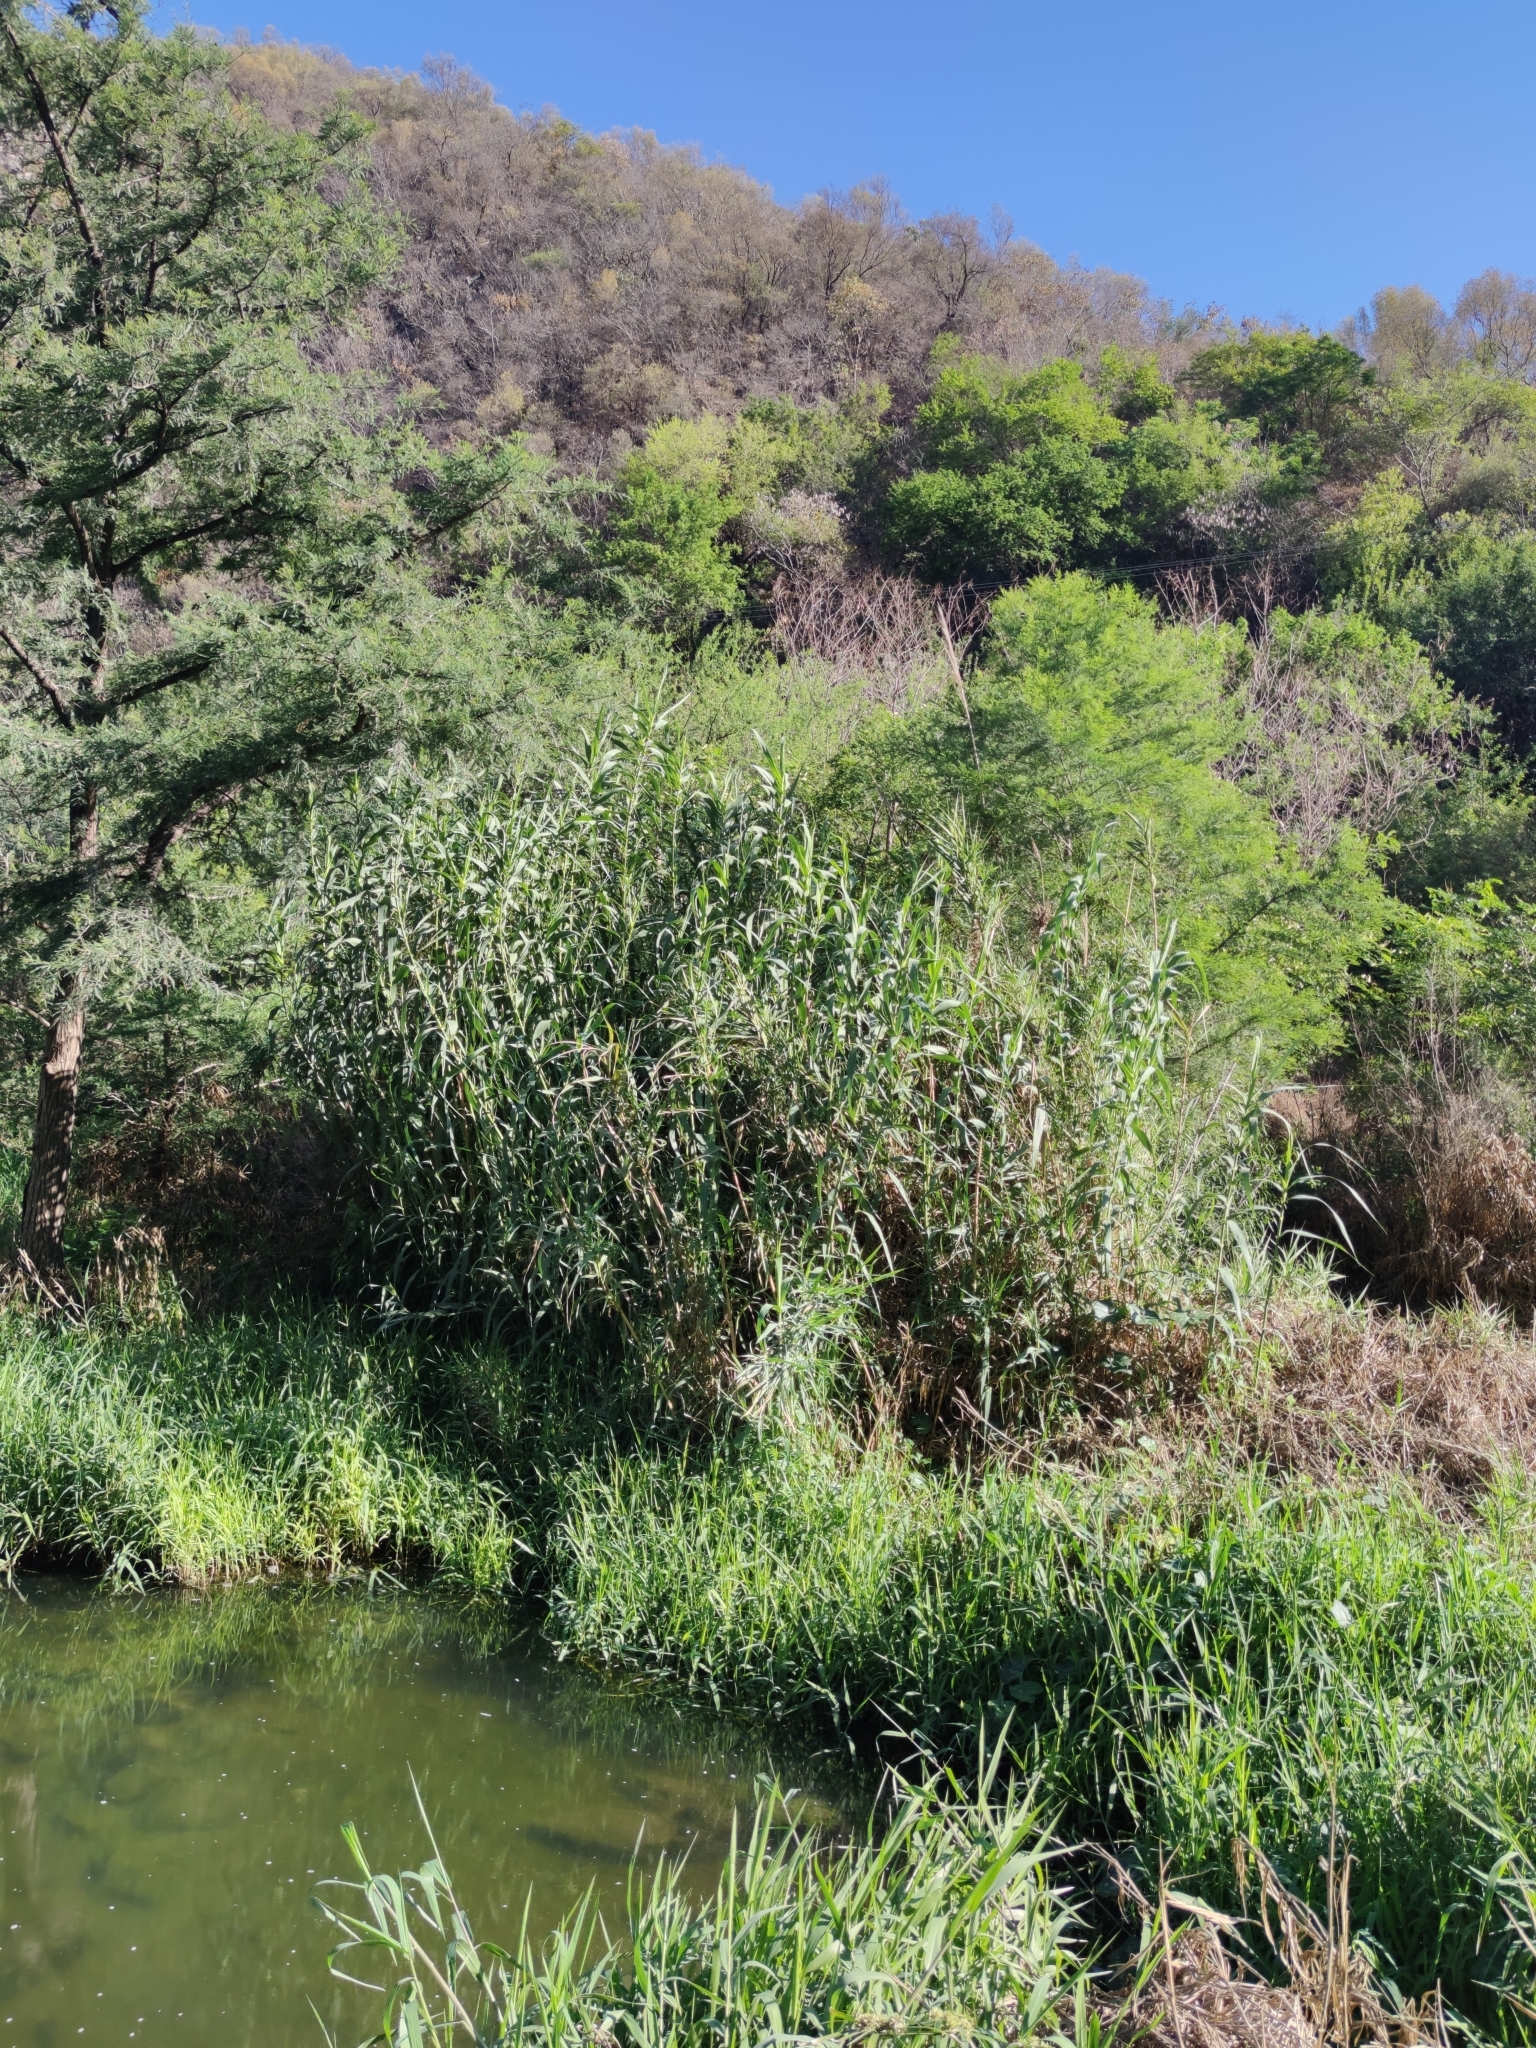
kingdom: Plantae
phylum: Tracheophyta
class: Liliopsida
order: Poales
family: Poaceae
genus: Arundo
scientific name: Arundo donax
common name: Giant reed
